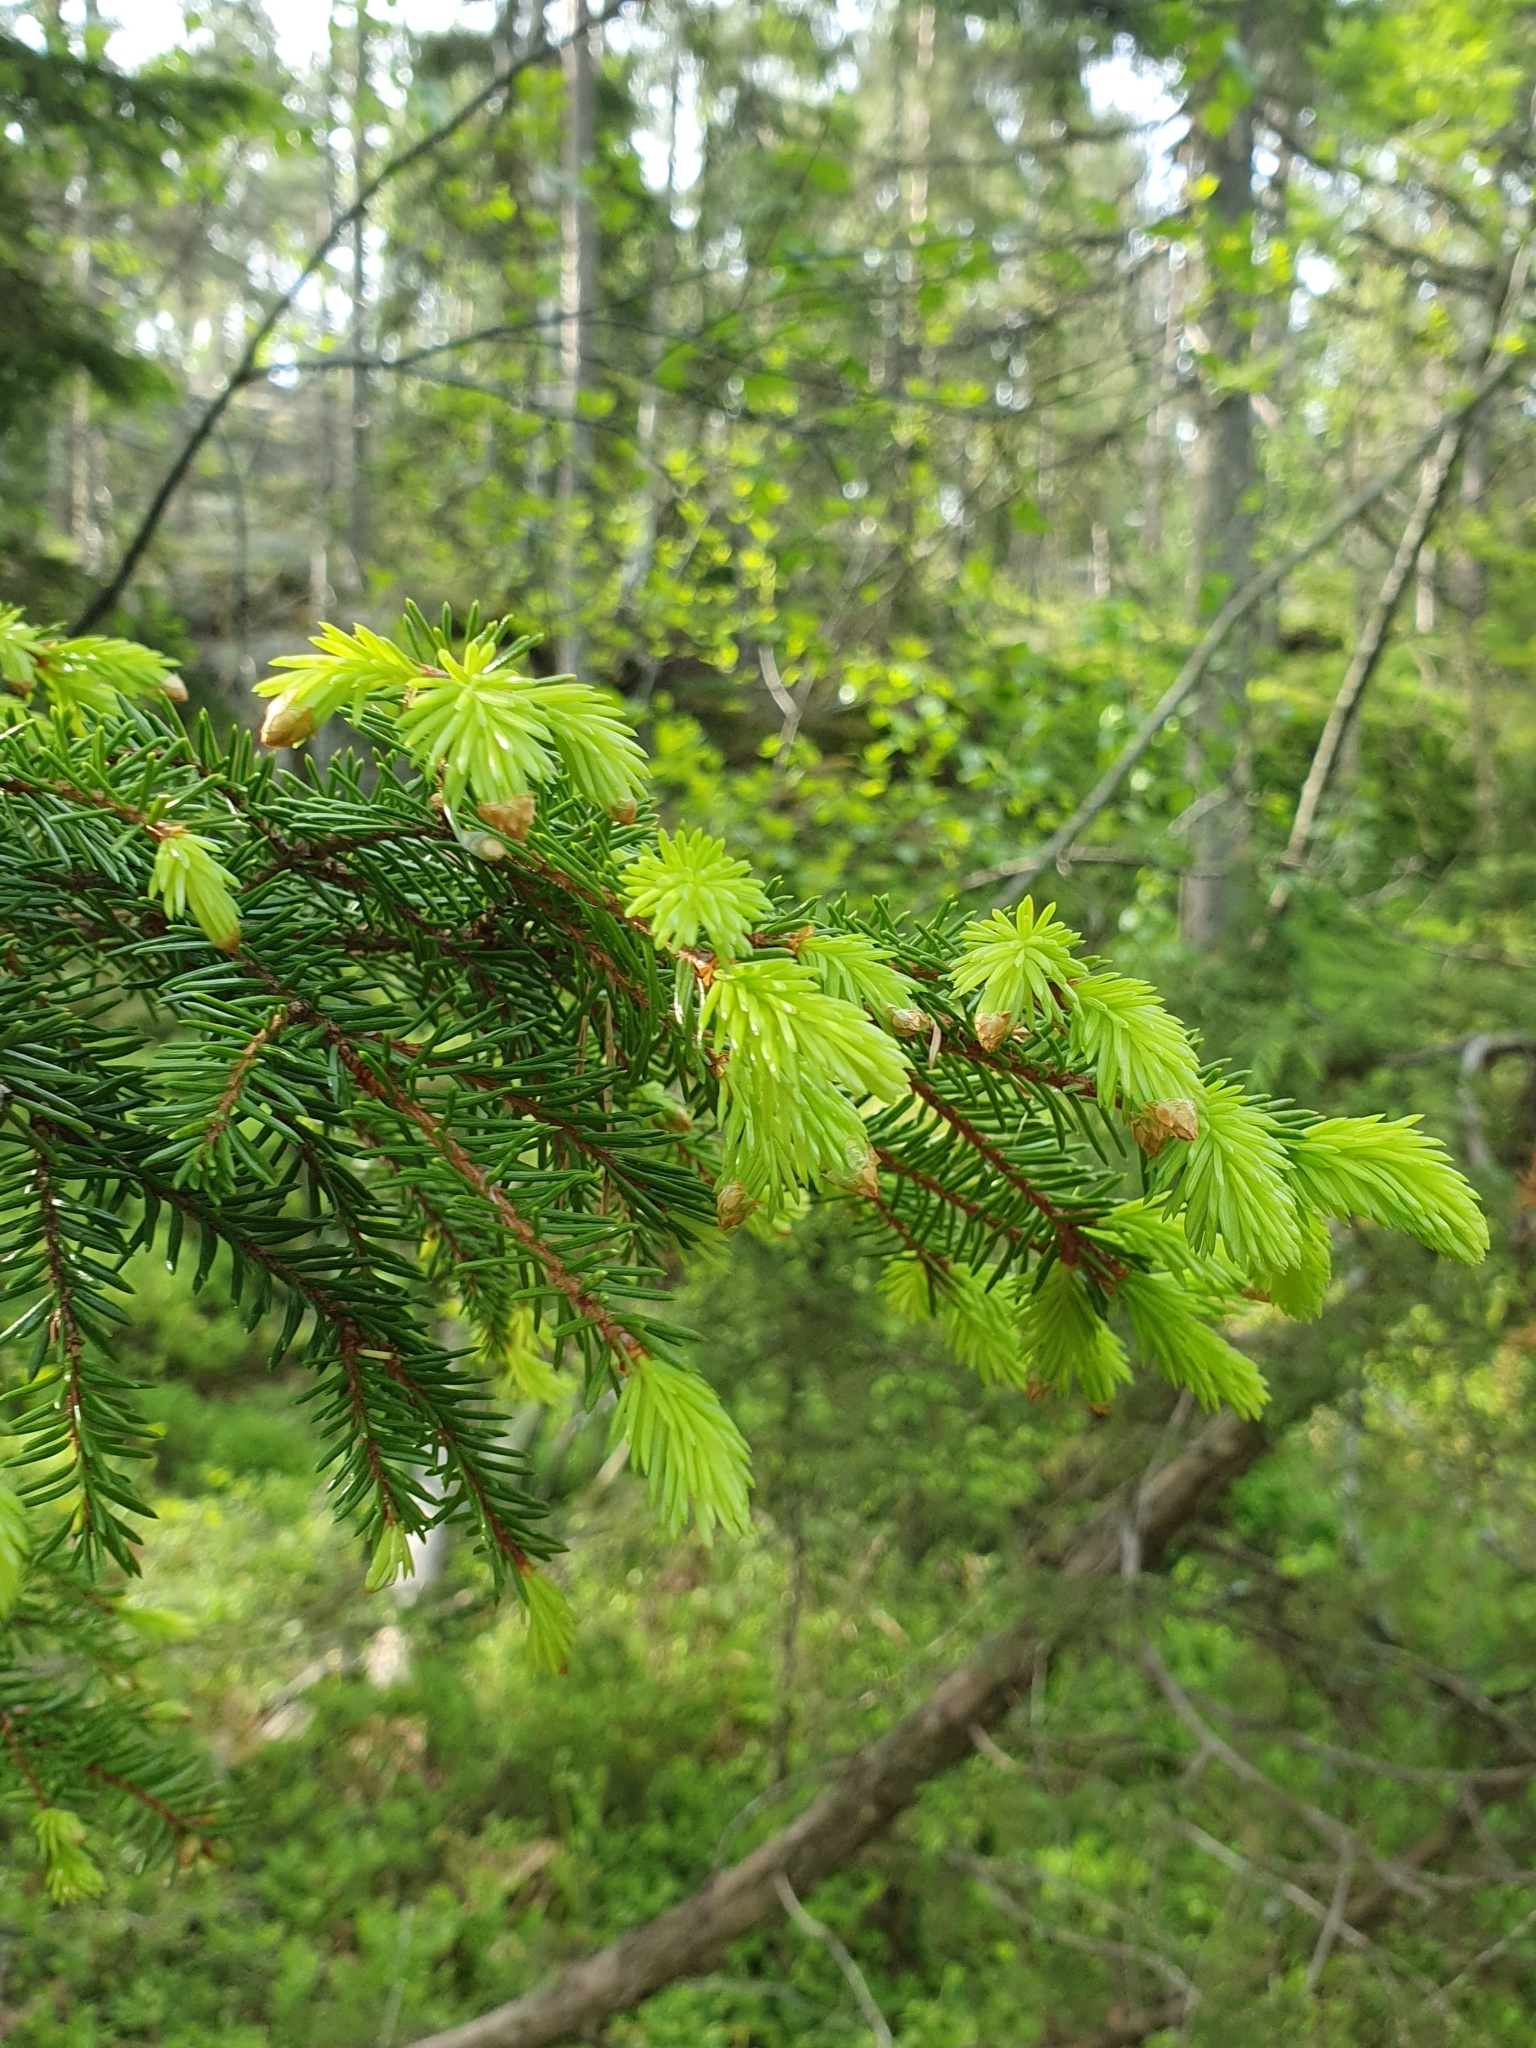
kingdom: Plantae
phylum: Tracheophyta
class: Pinopsida
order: Pinales
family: Pinaceae
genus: Picea
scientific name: Picea abies
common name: Norway spruce
